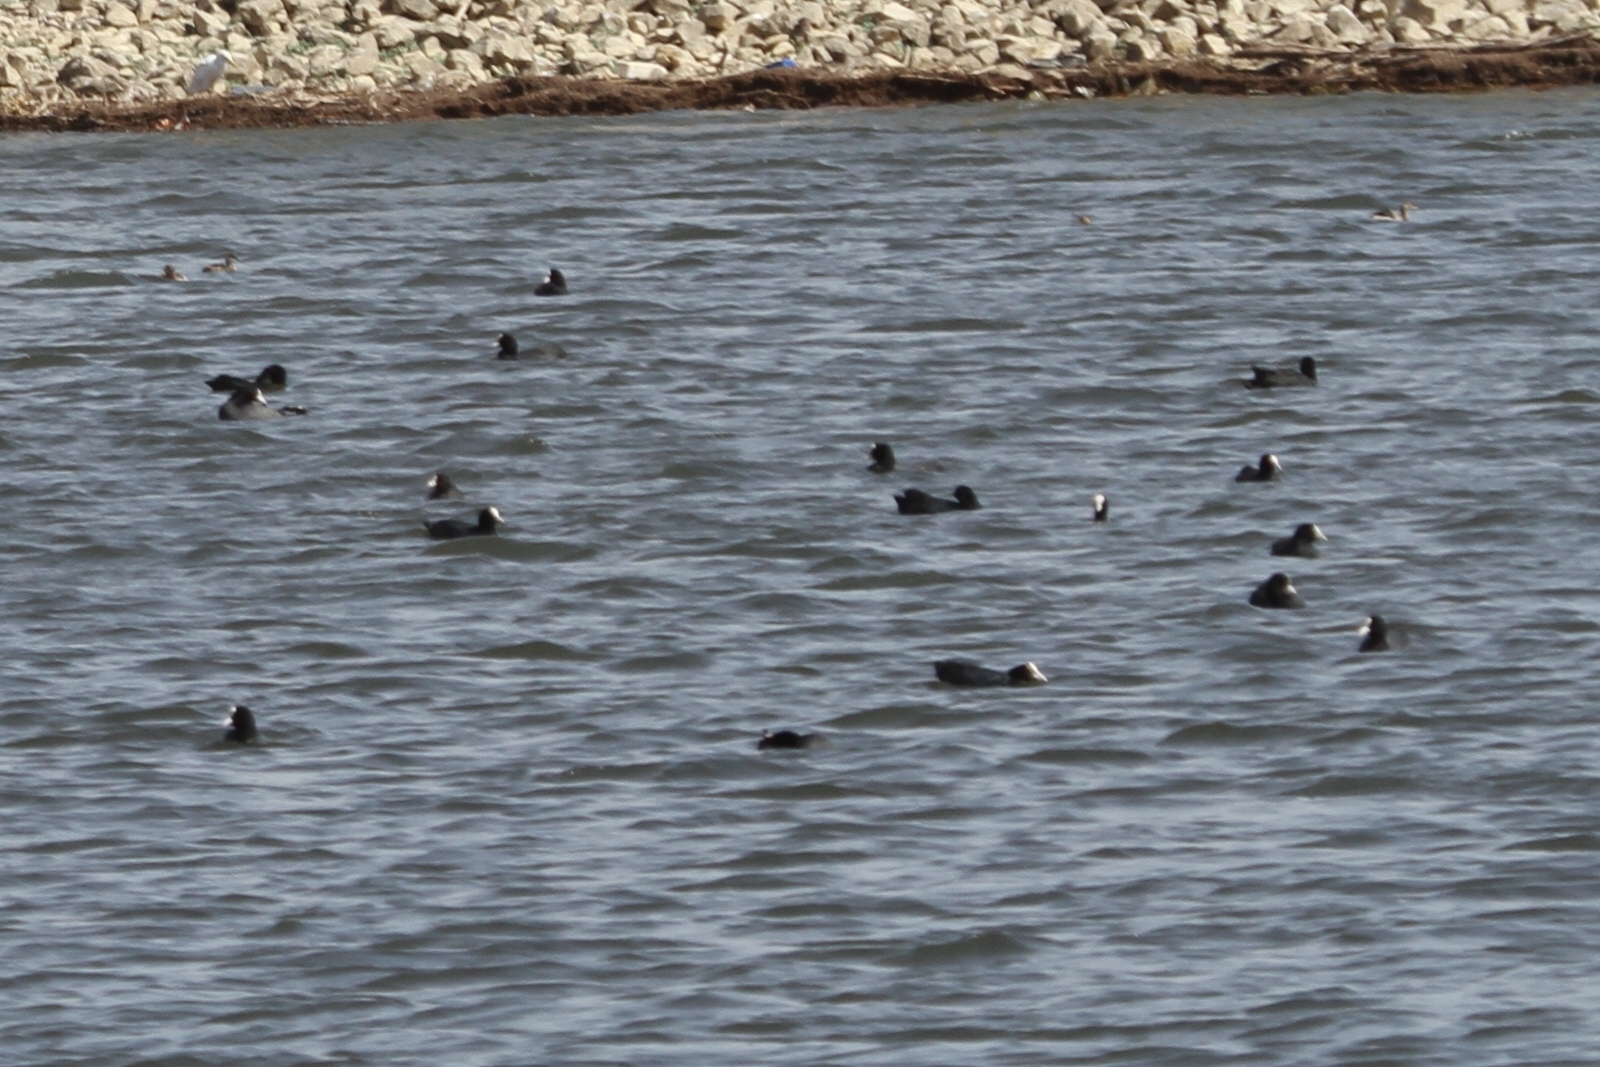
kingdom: Animalia
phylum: Chordata
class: Aves
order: Gruiformes
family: Rallidae
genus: Fulica
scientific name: Fulica atra
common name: Eurasian coot
